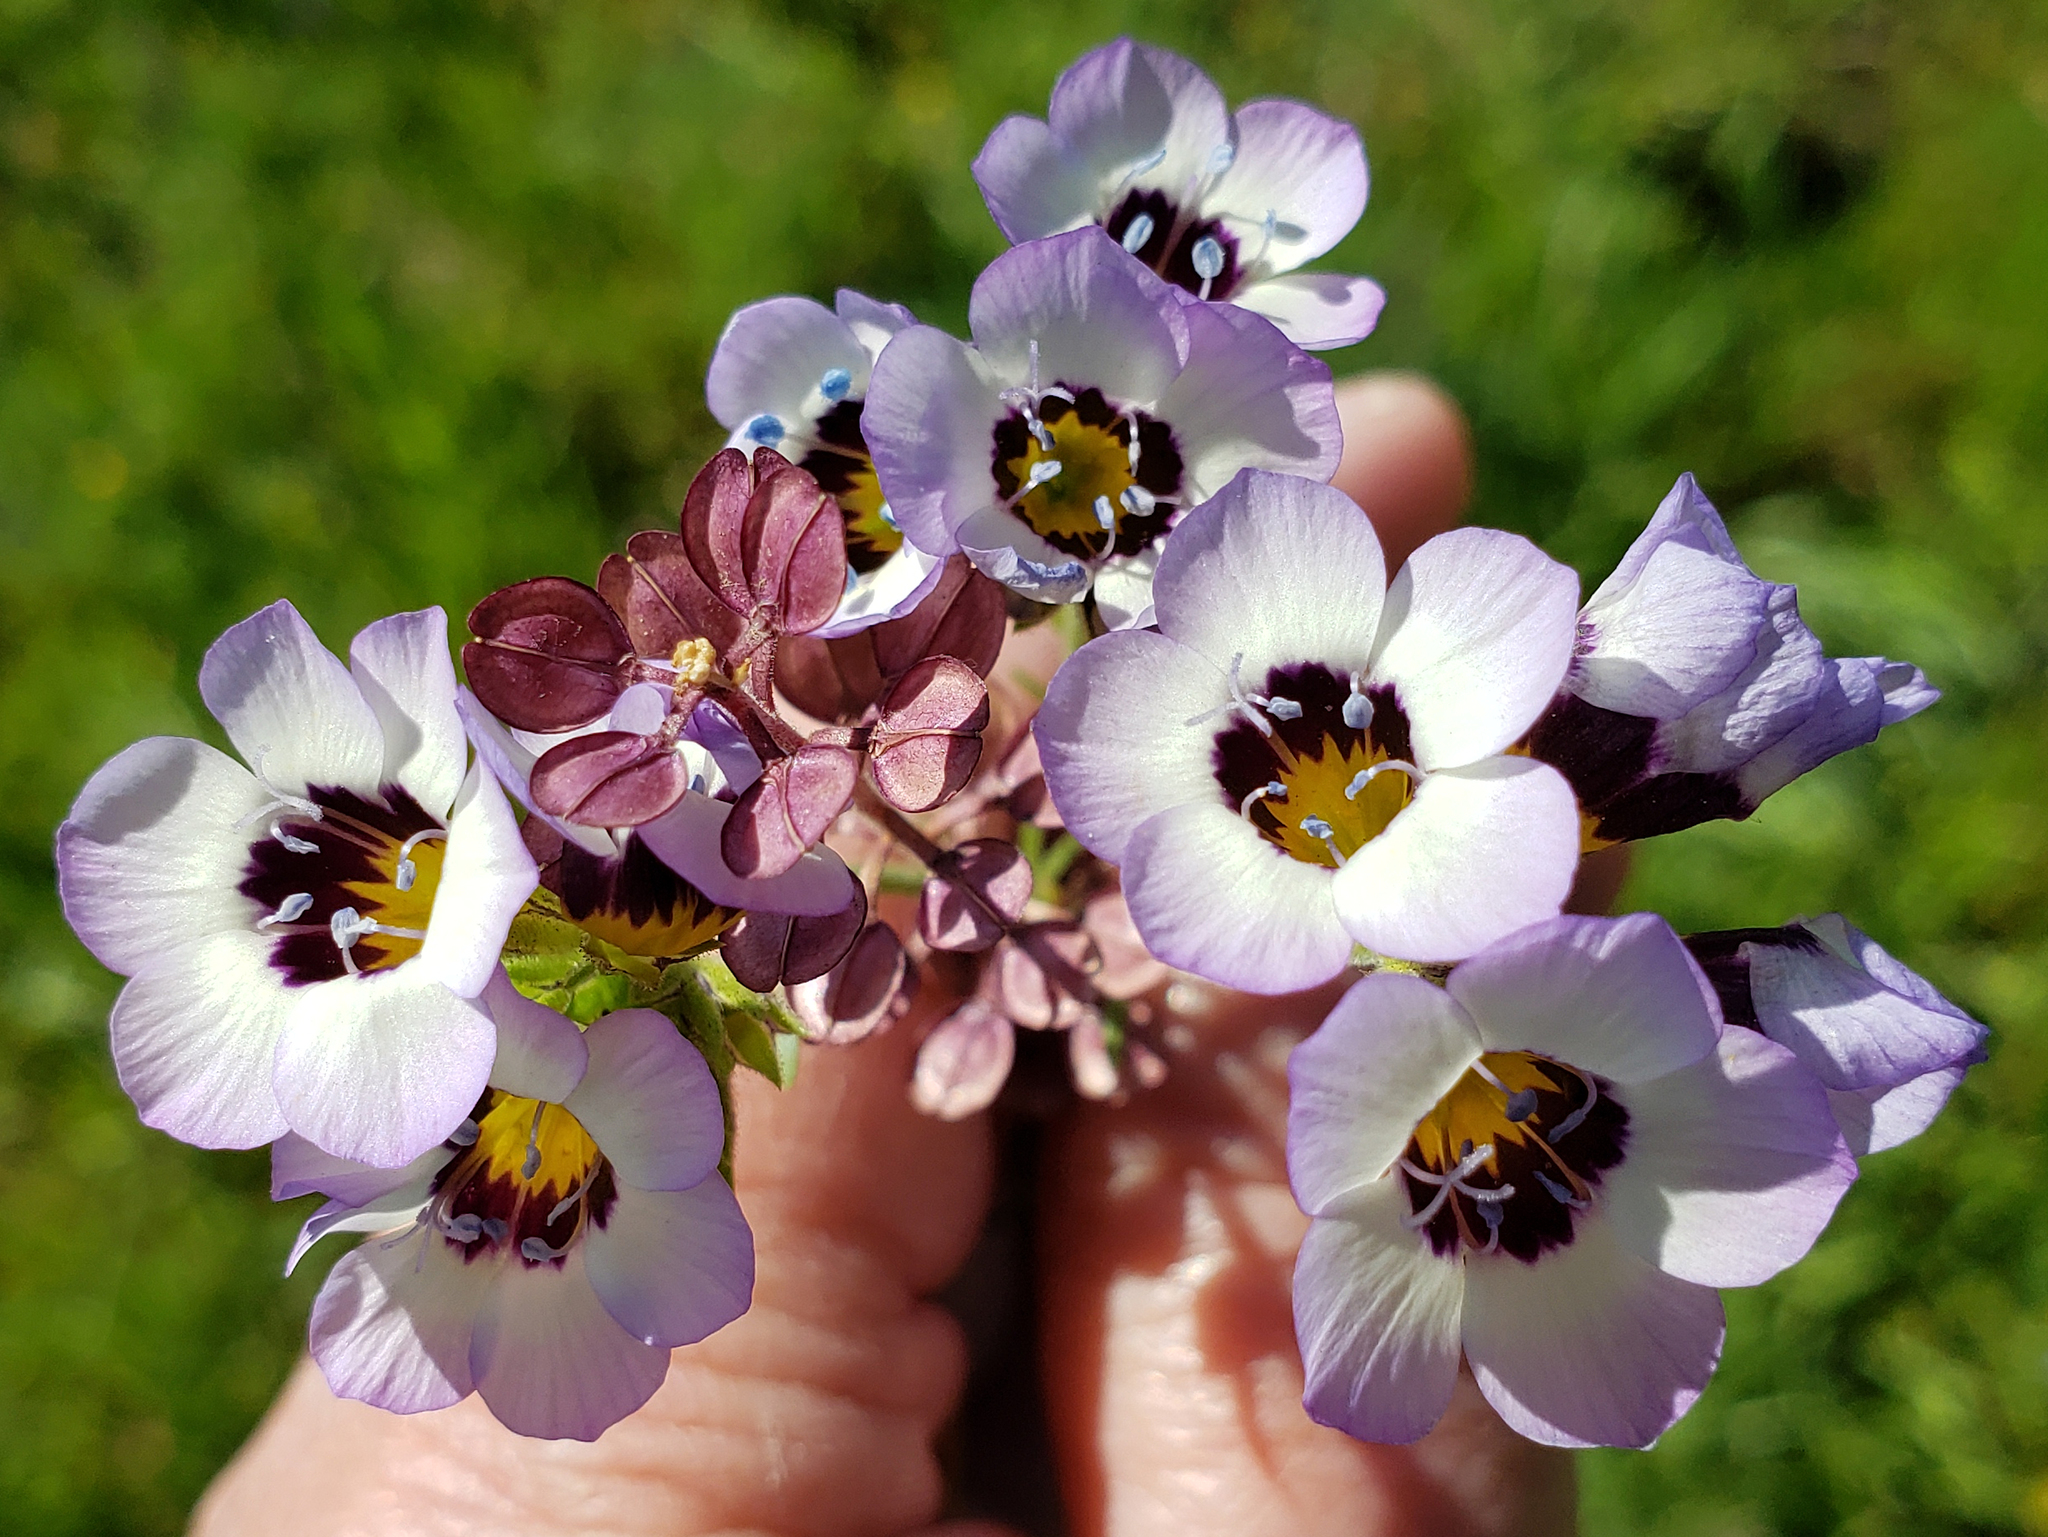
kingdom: Plantae
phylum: Tracheophyta
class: Magnoliopsida
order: Ericales
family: Polemoniaceae
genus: Gilia
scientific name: Gilia tricolor
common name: Bird's-eyes
